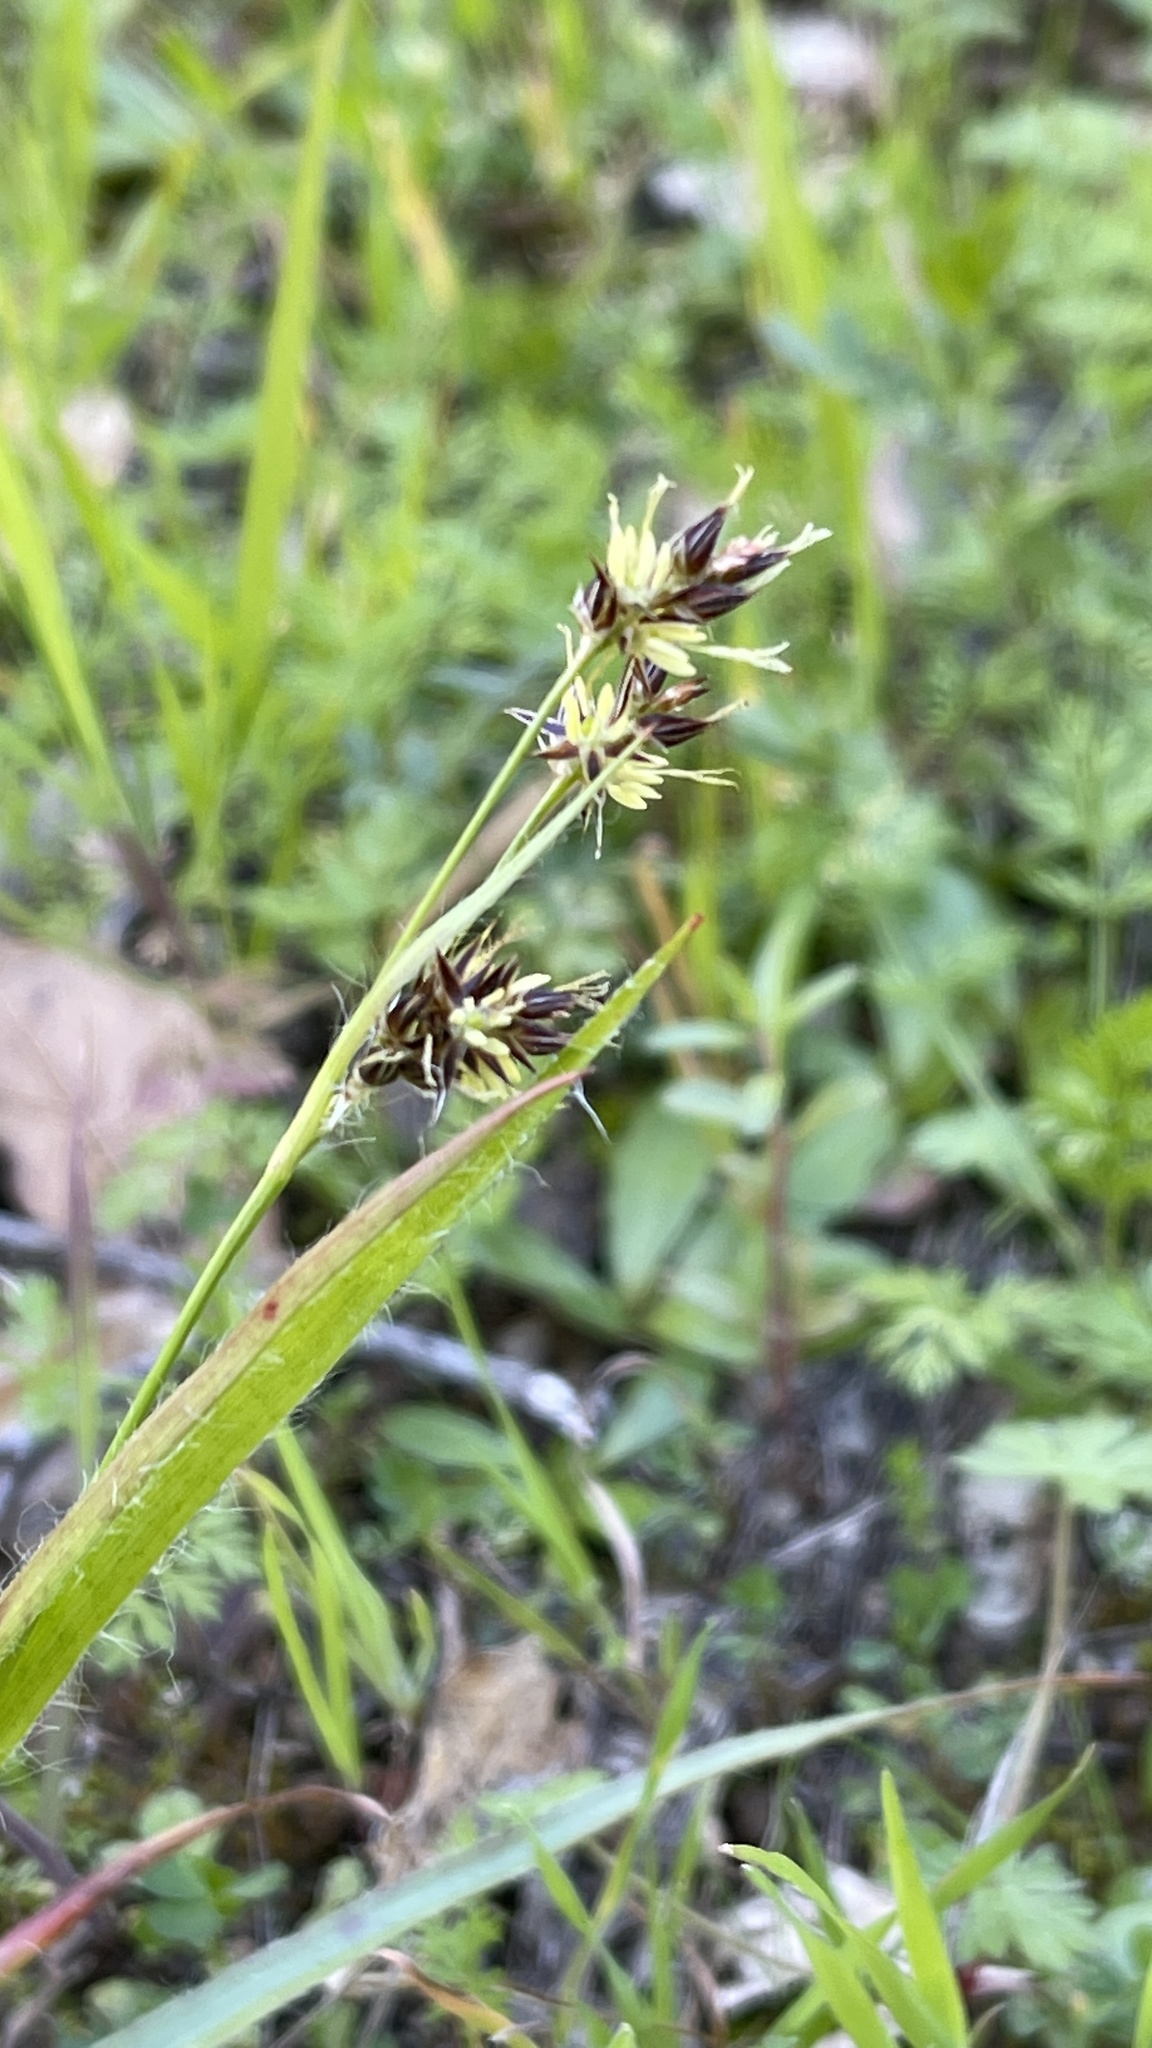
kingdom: Plantae
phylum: Tracheophyta
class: Liliopsida
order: Poales
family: Juncaceae
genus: Luzula
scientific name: Luzula comosa
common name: Pacific woodrush
